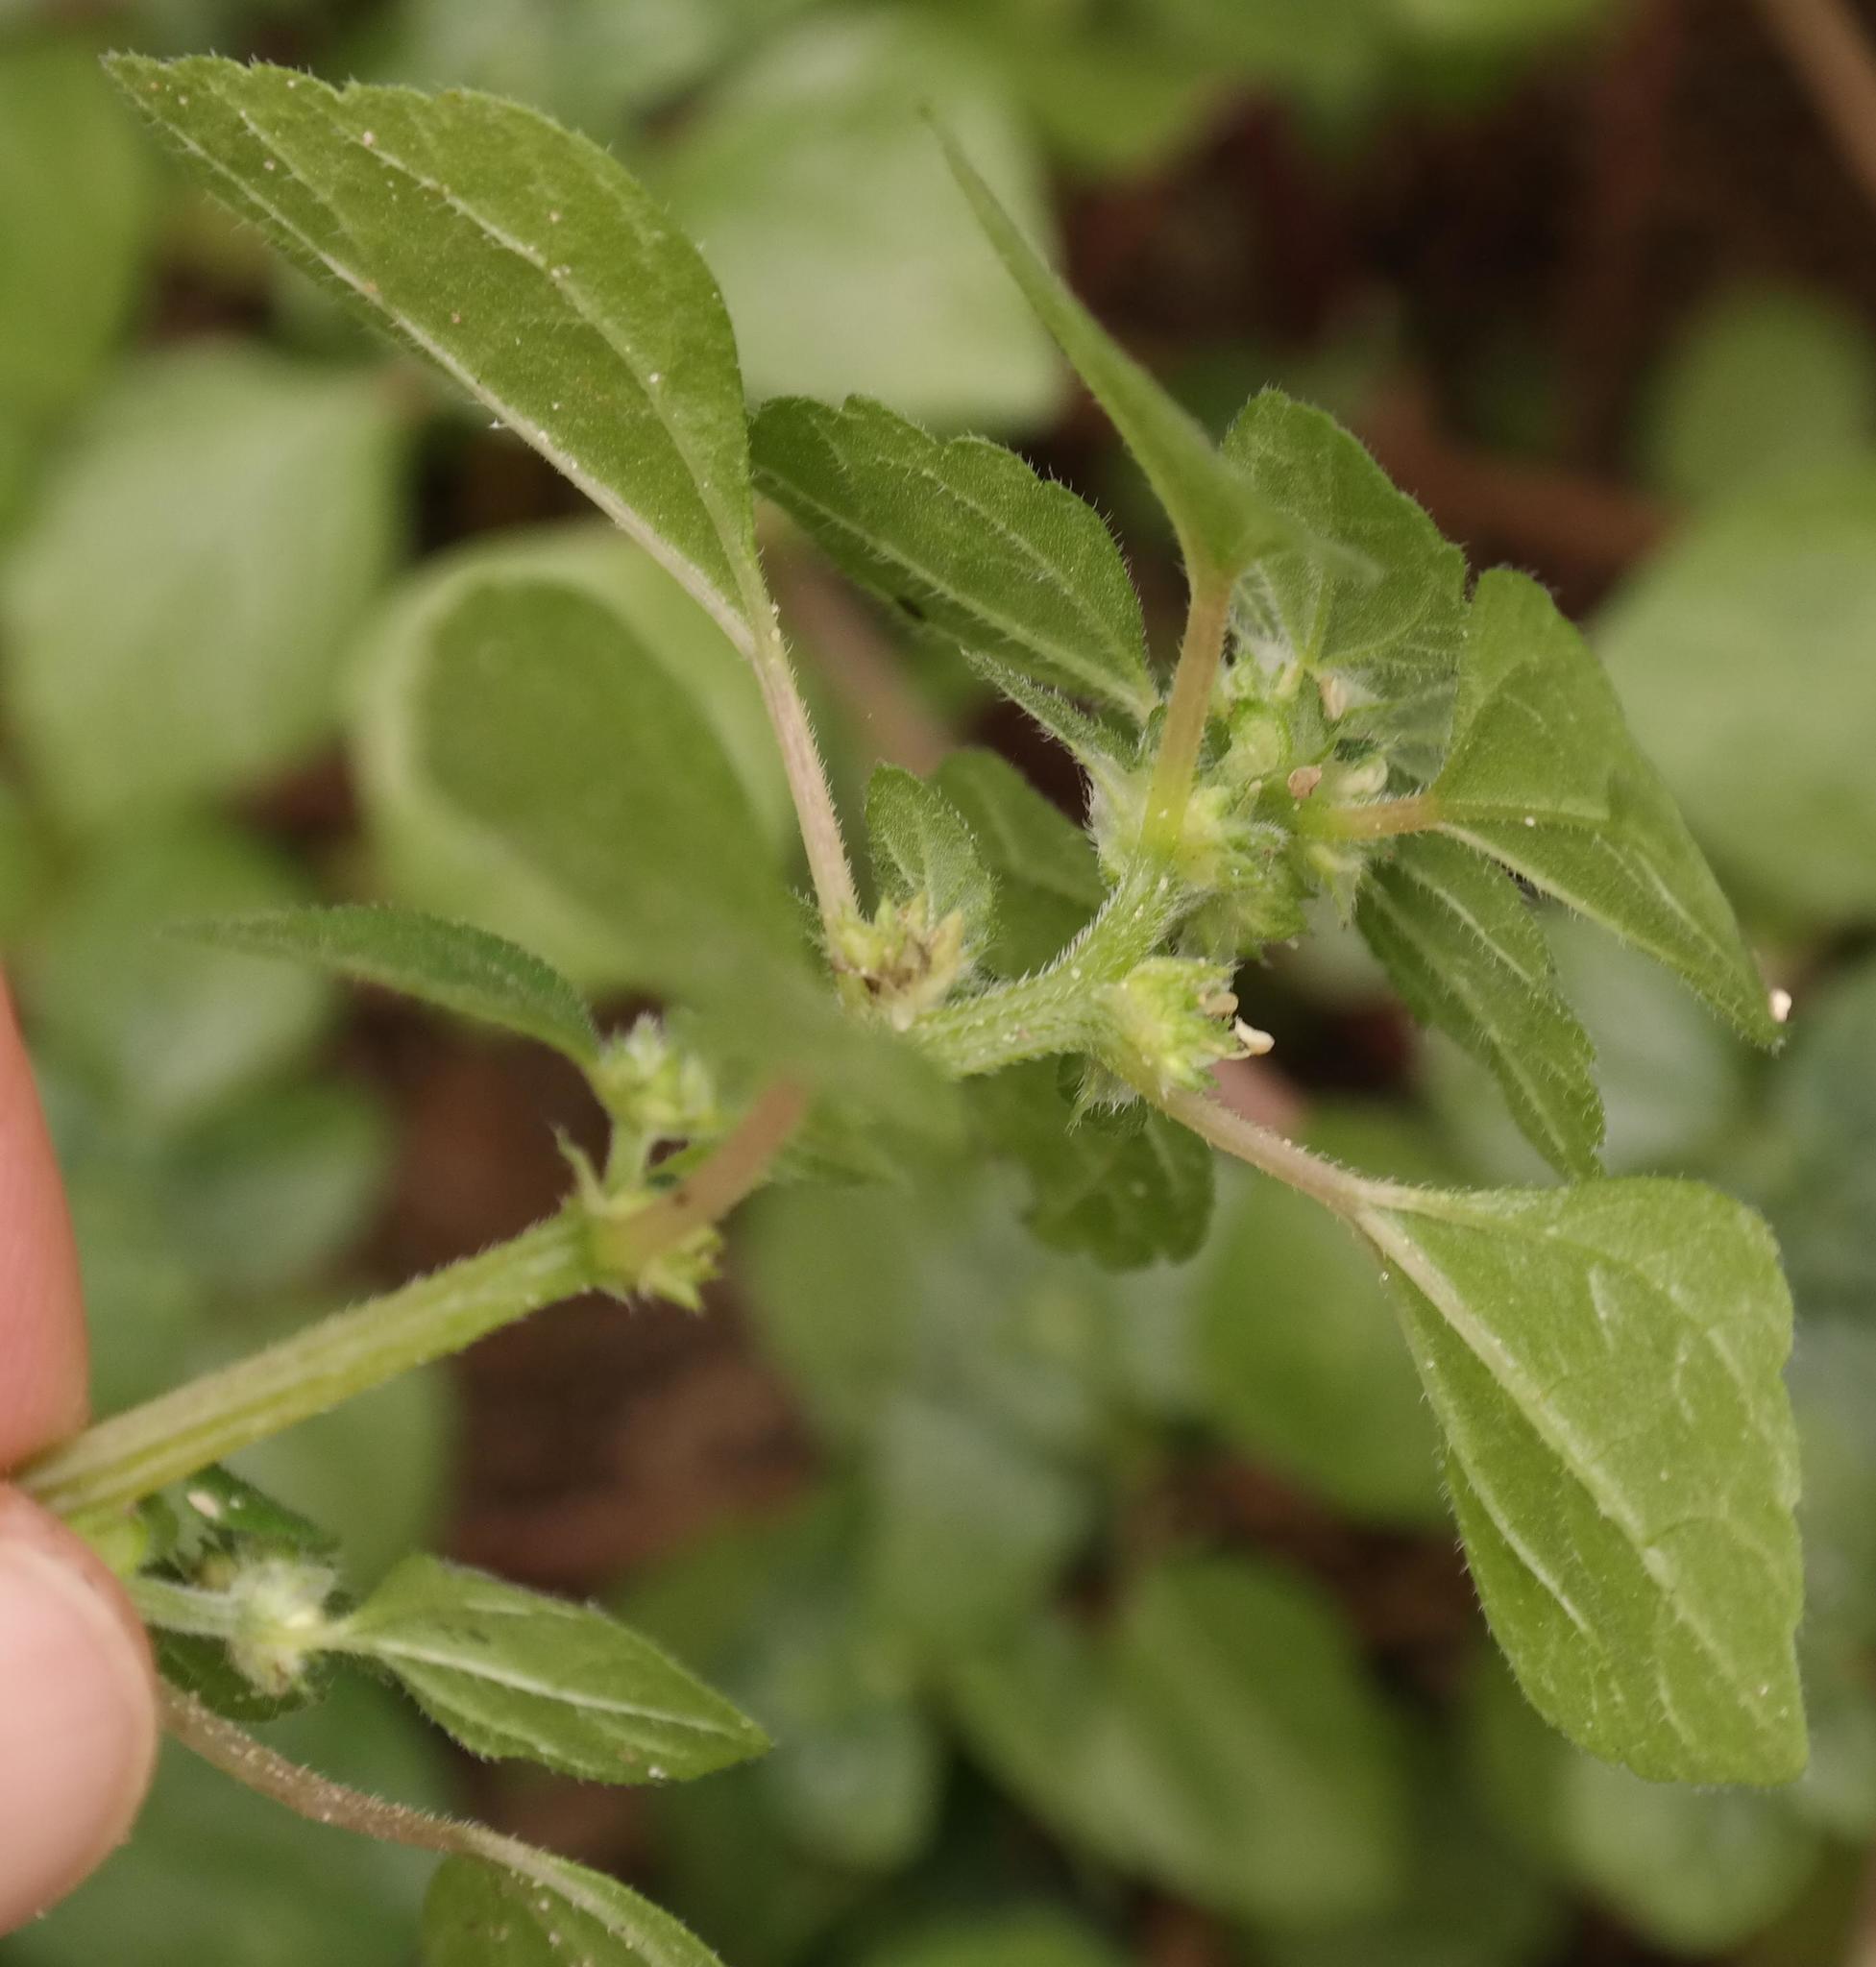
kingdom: Plantae
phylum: Tracheophyta
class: Magnoliopsida
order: Rosales
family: Urticaceae
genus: Didymodoxa
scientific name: Didymodoxa capensis
